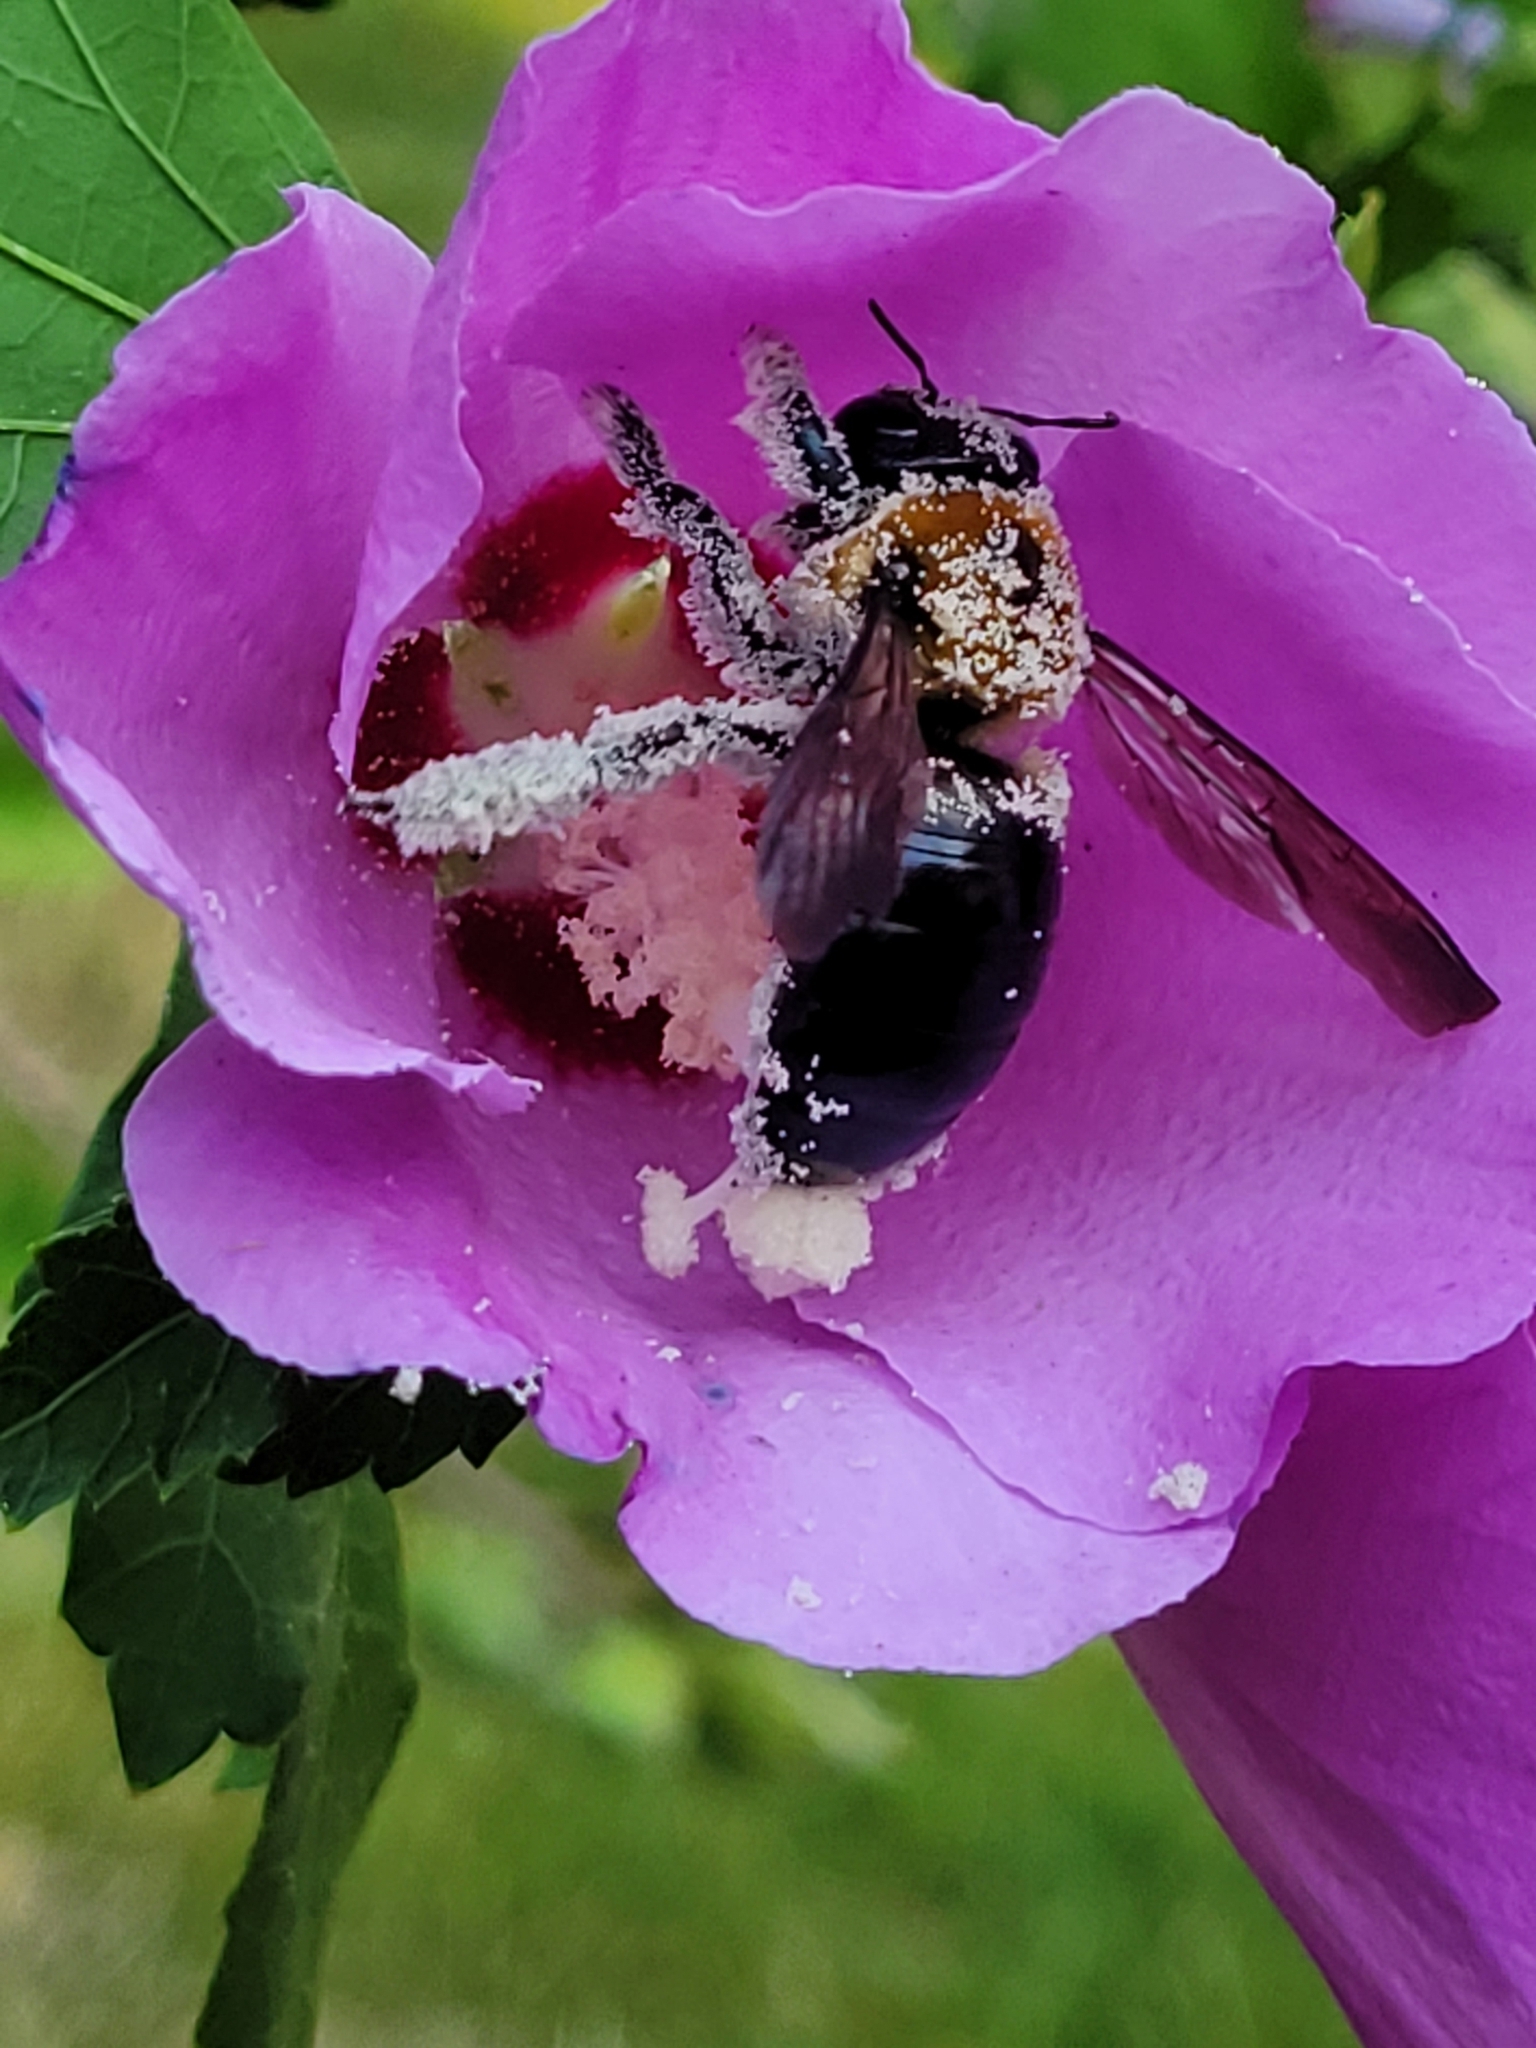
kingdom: Animalia
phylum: Arthropoda
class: Insecta
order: Hymenoptera
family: Apidae
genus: Xylocopa
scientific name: Xylocopa virginica
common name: Carpenter bee
